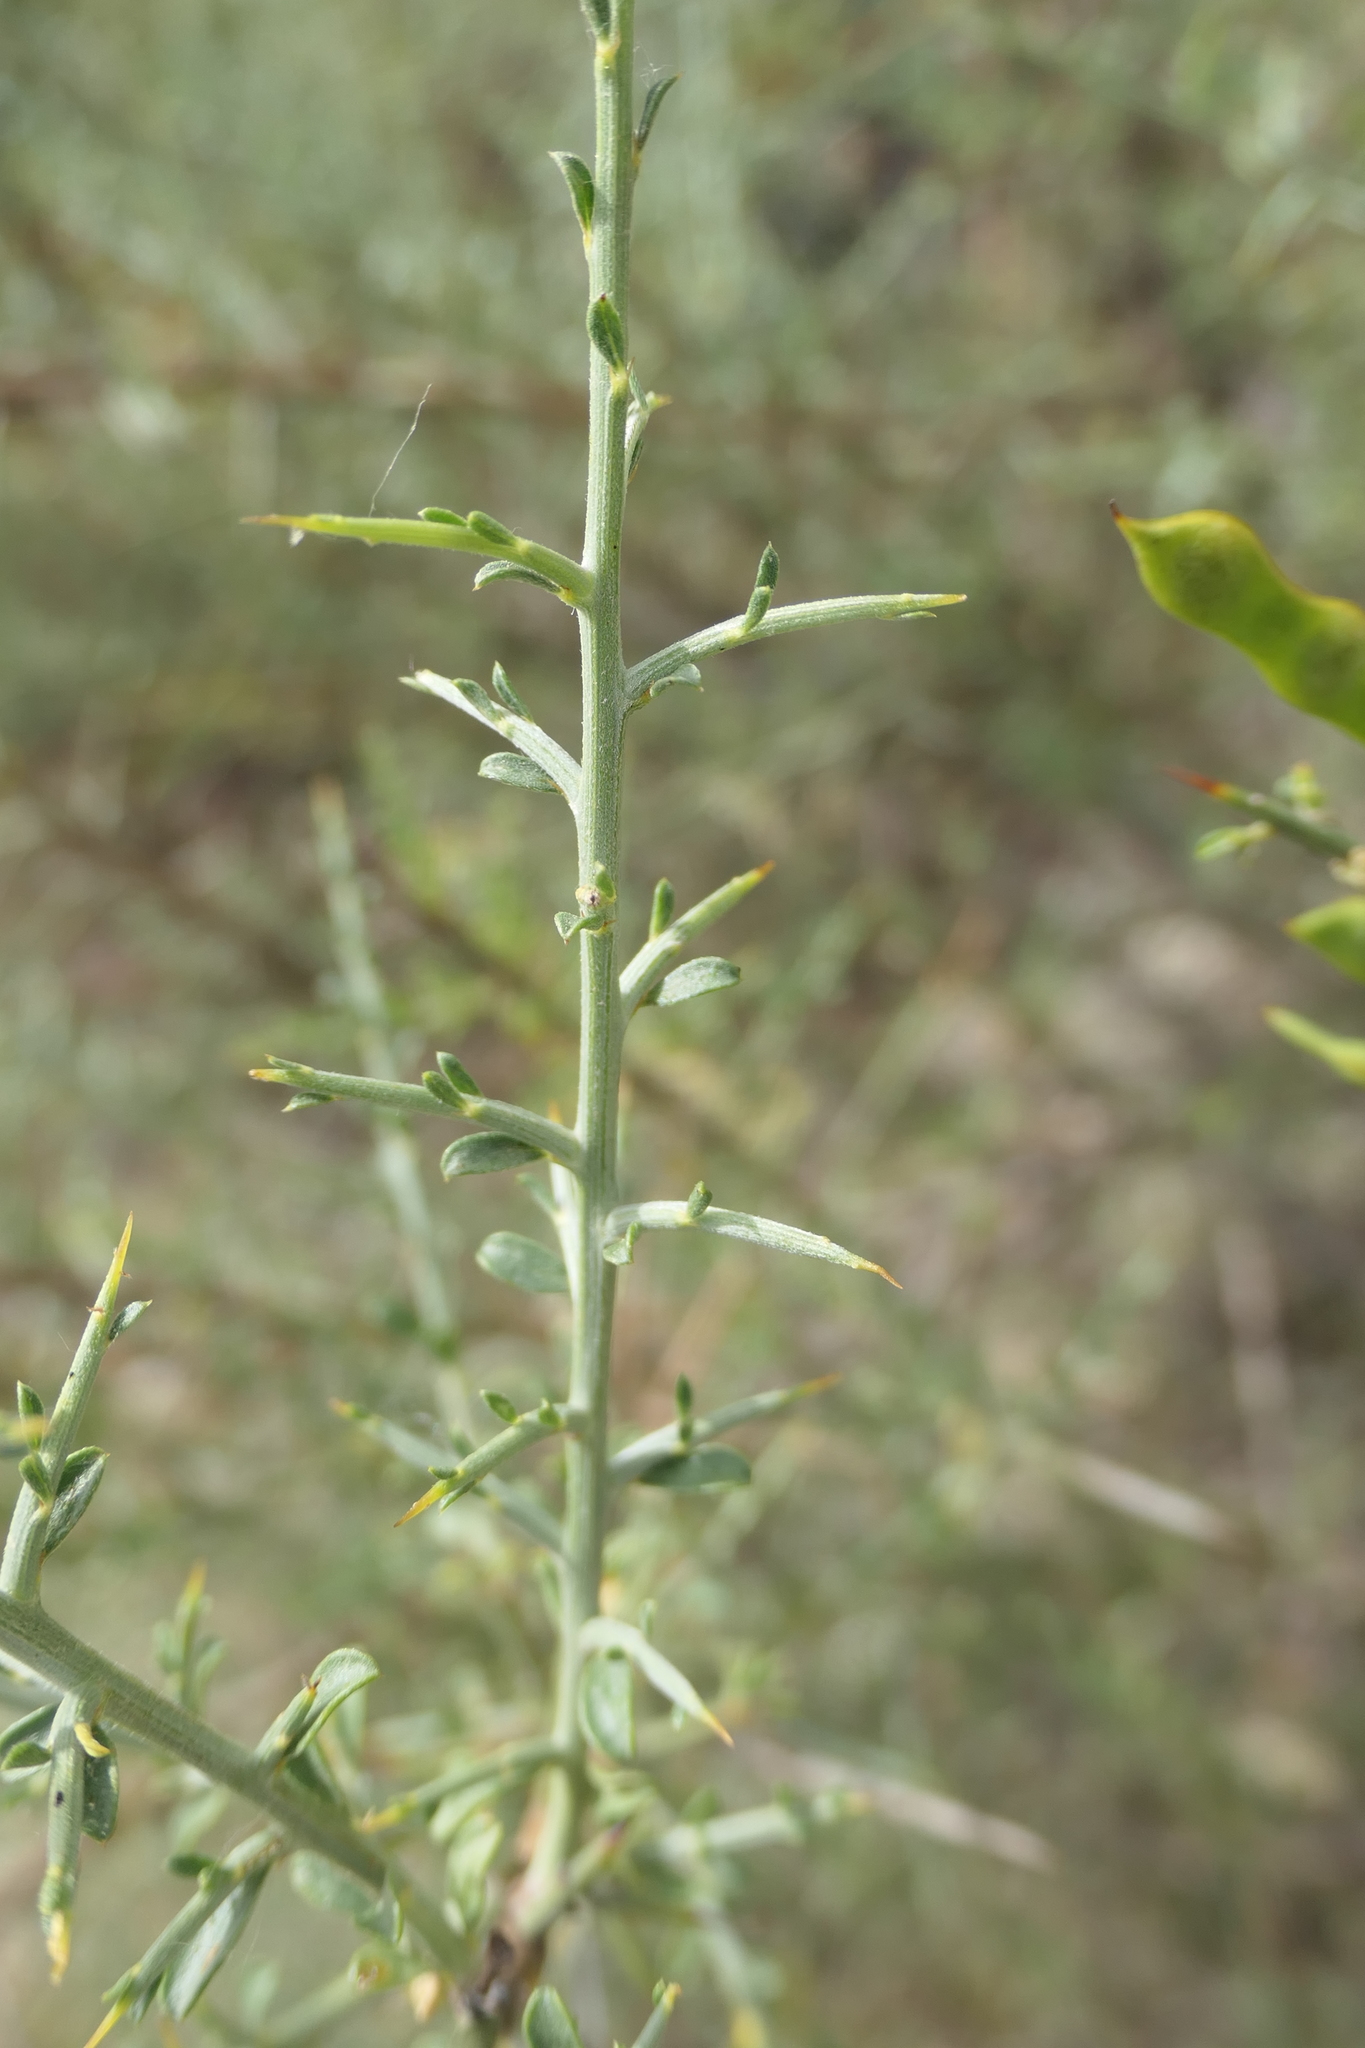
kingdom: Plantae
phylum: Tracheophyta
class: Magnoliopsida
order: Fabales
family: Fabaceae
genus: Genista
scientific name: Genista scorpius
